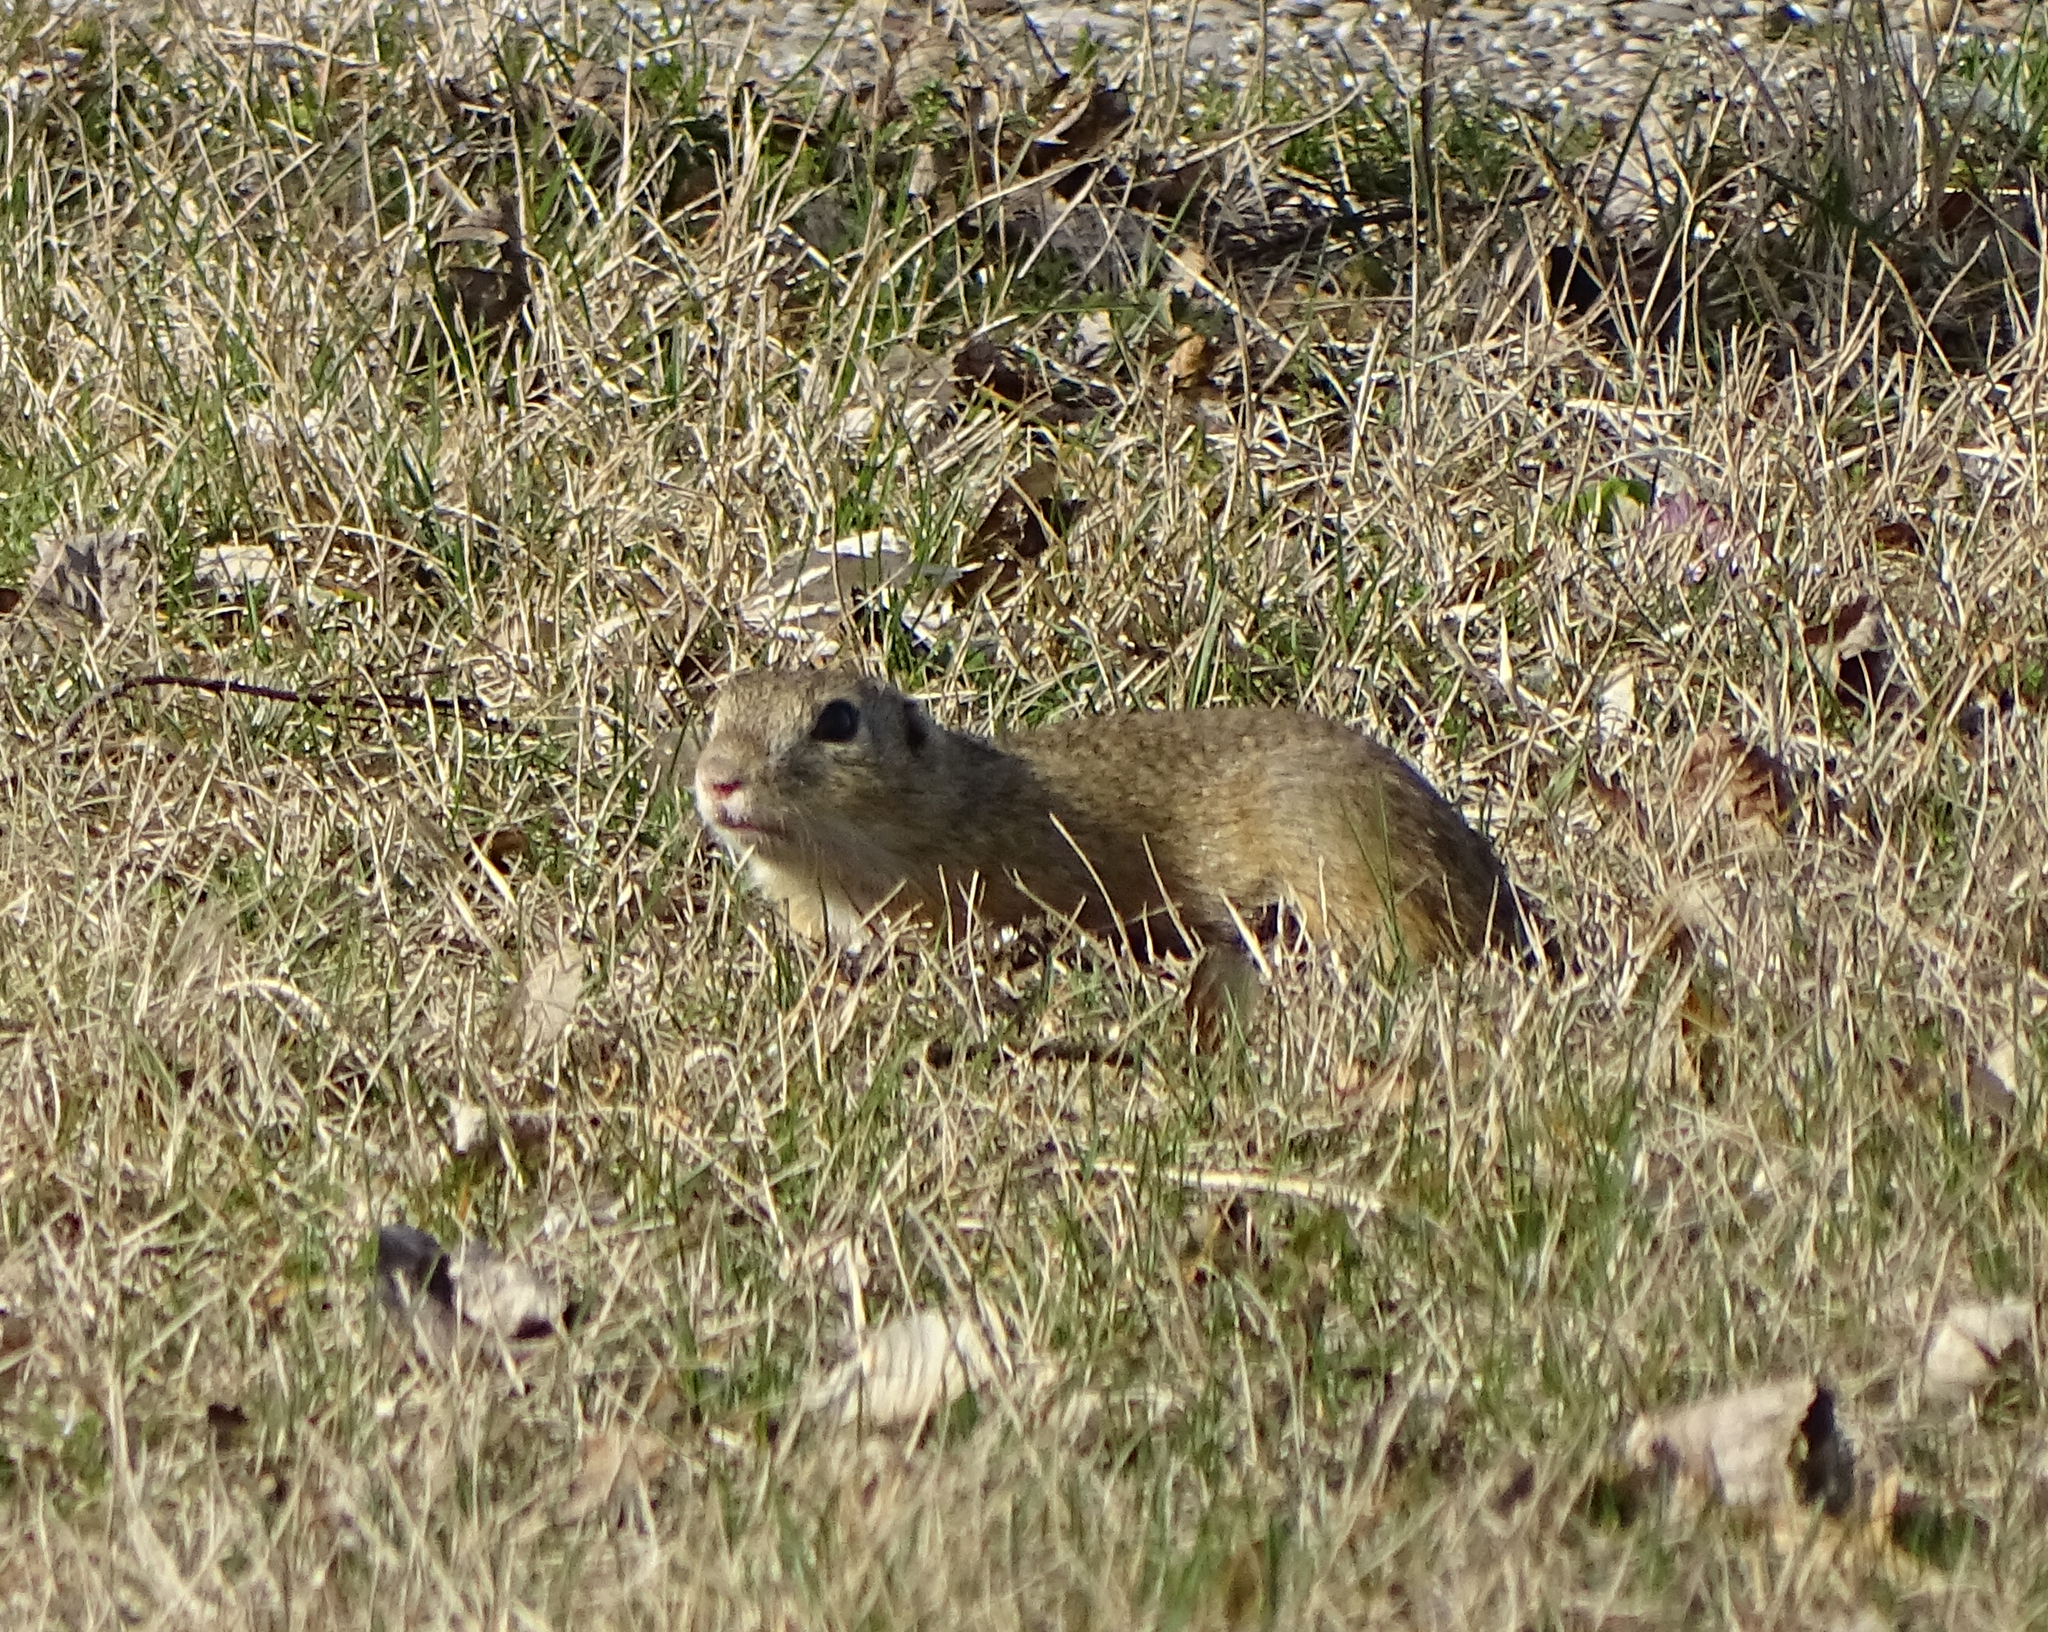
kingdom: Animalia
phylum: Chordata
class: Mammalia
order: Rodentia
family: Sciuridae
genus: Spermophilus
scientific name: Spermophilus citellus
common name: European ground squirrel
